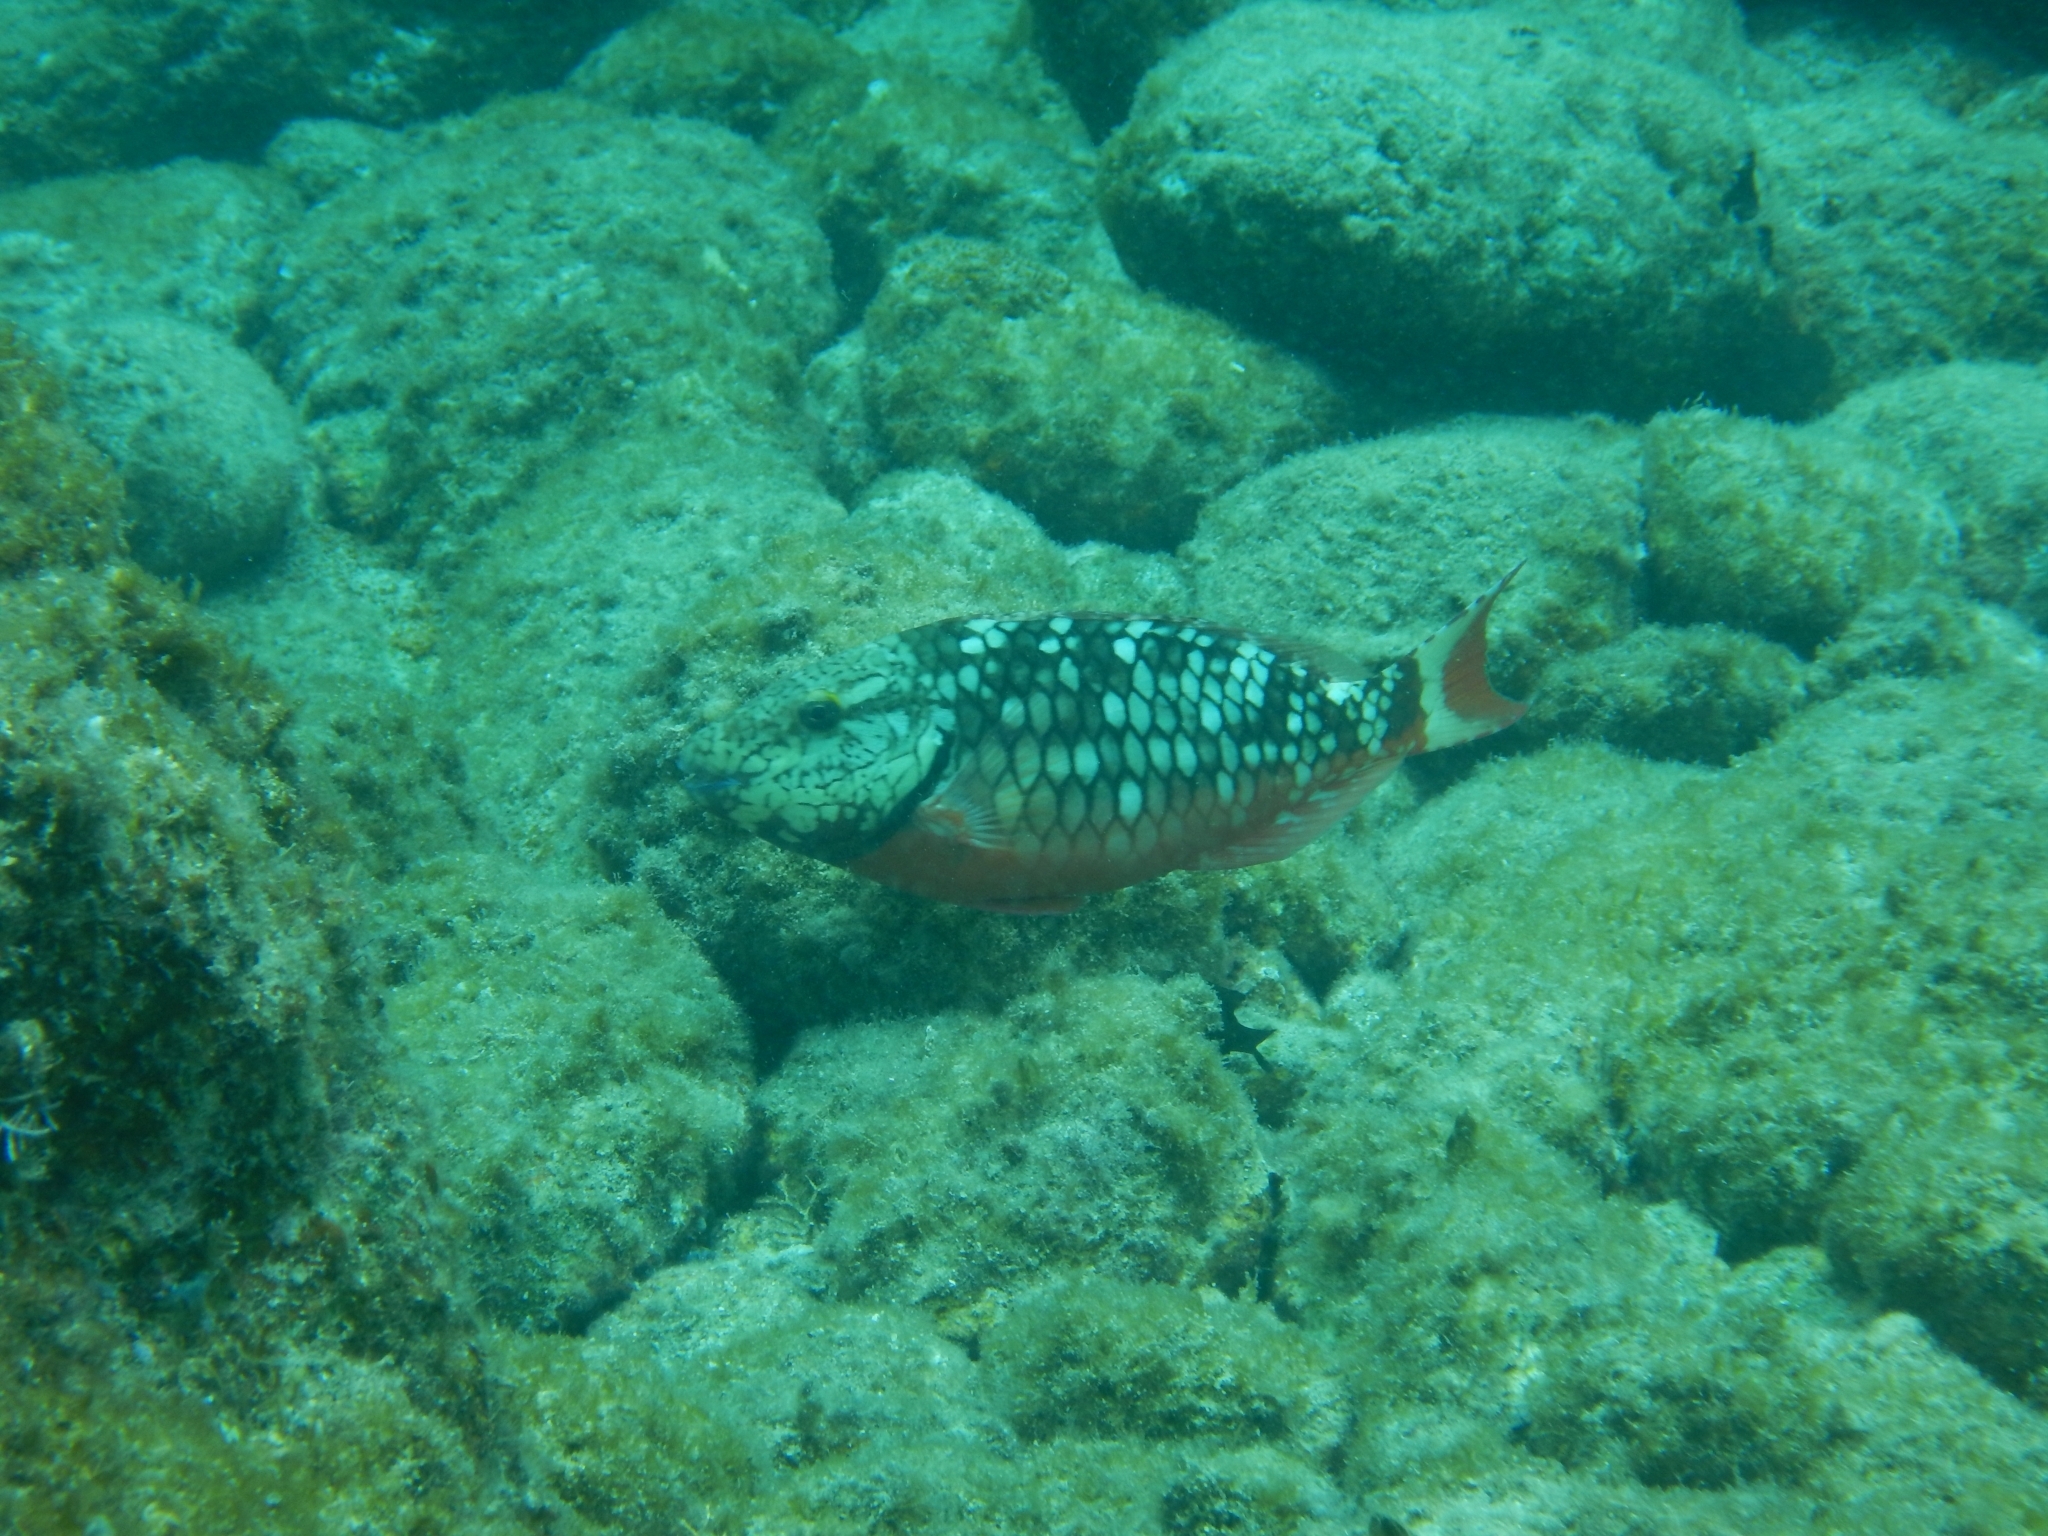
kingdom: Animalia
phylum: Chordata
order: Perciformes
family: Scaridae
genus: Sparisoma
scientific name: Sparisoma viride
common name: Stoplight parrotfish
